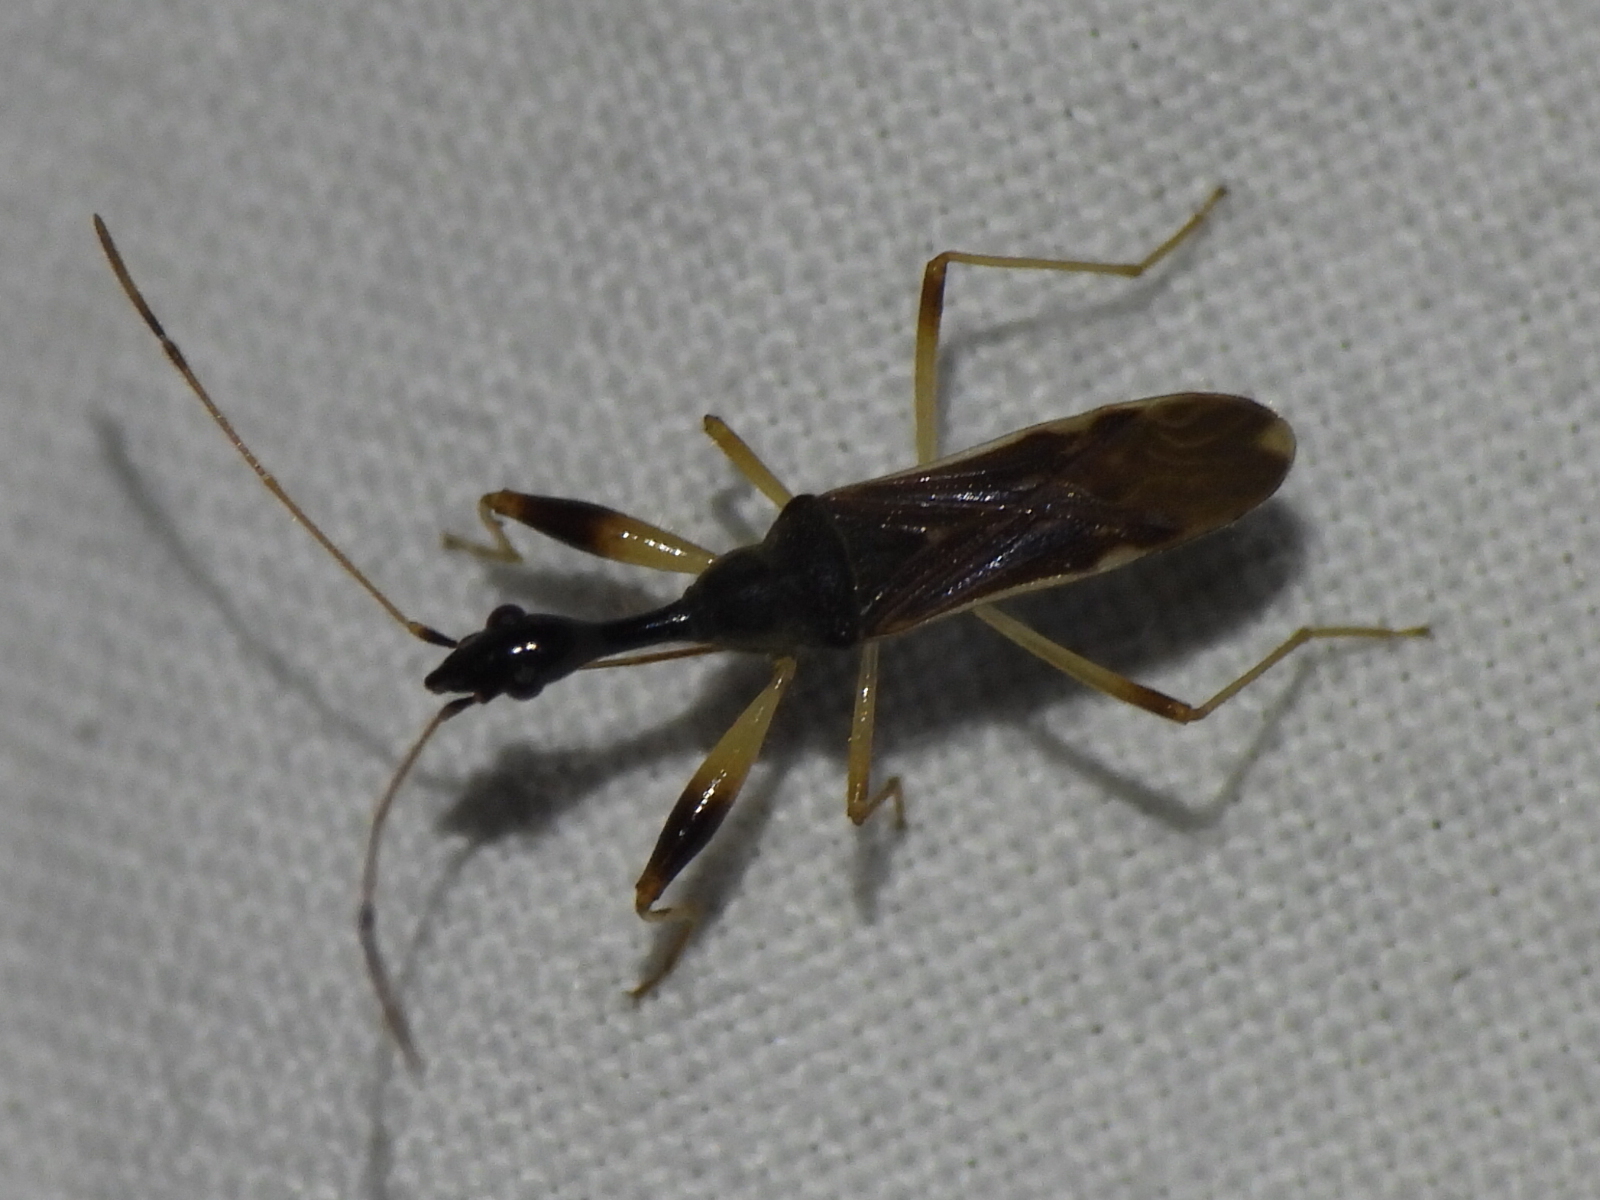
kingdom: Animalia
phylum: Arthropoda
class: Insecta
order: Hemiptera
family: Rhyparochromidae
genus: Myodocha
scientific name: Myodocha serripes
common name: Long-necked seed bug
